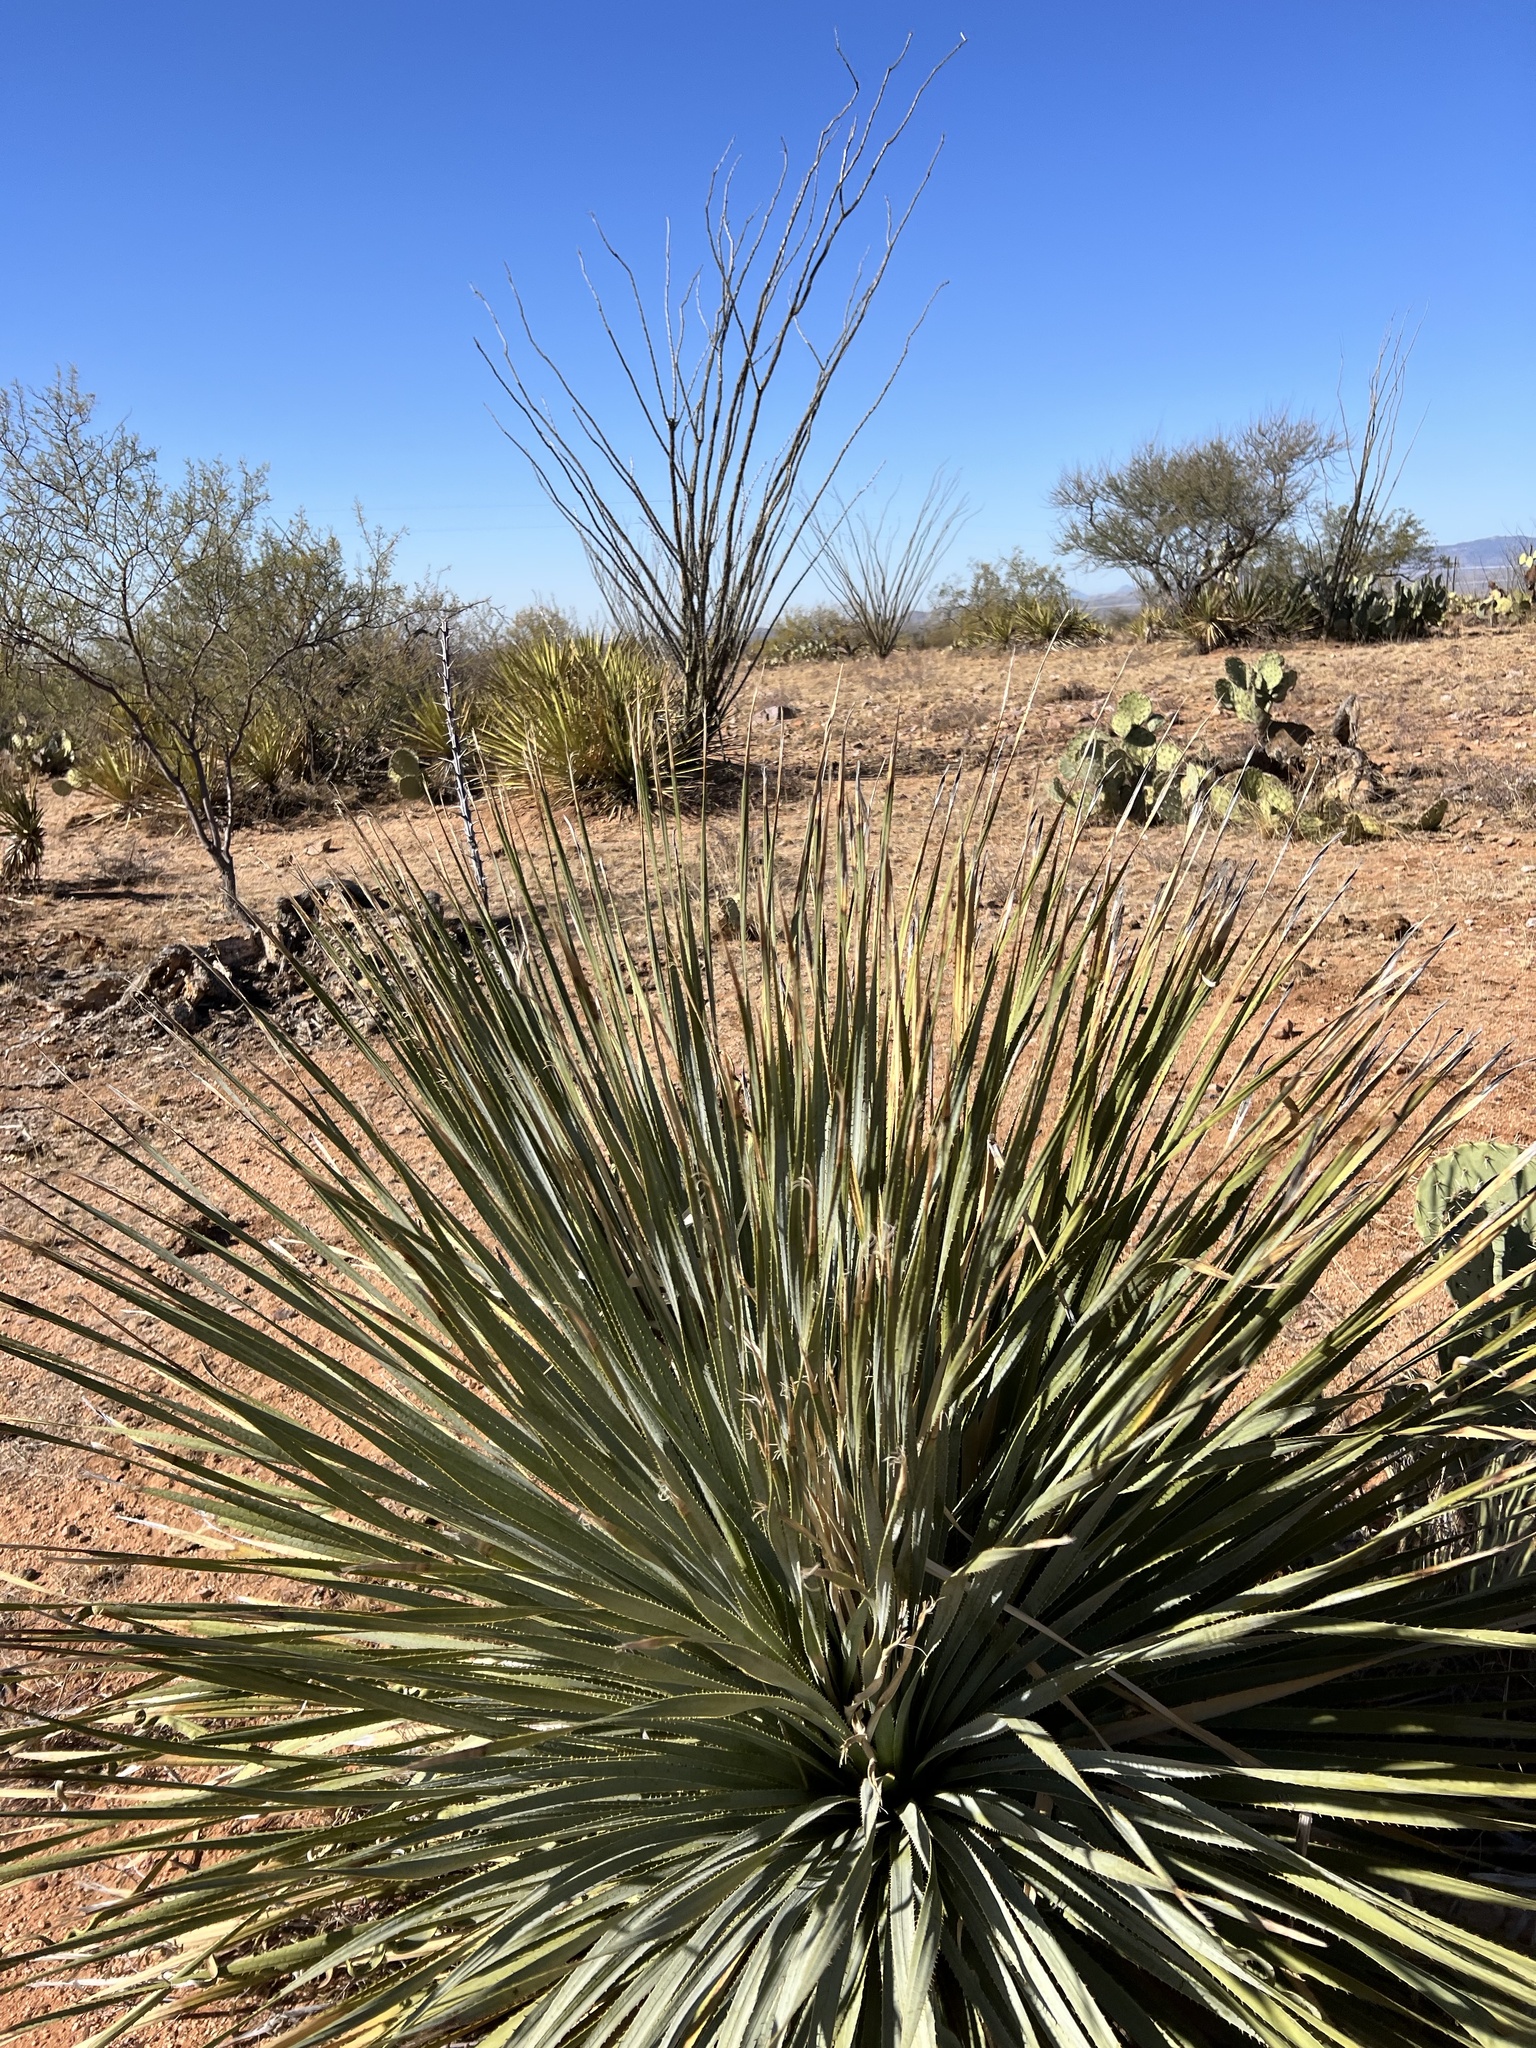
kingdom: Plantae
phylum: Tracheophyta
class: Liliopsida
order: Asparagales
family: Asparagaceae
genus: Dasylirion
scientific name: Dasylirion wheeleri
